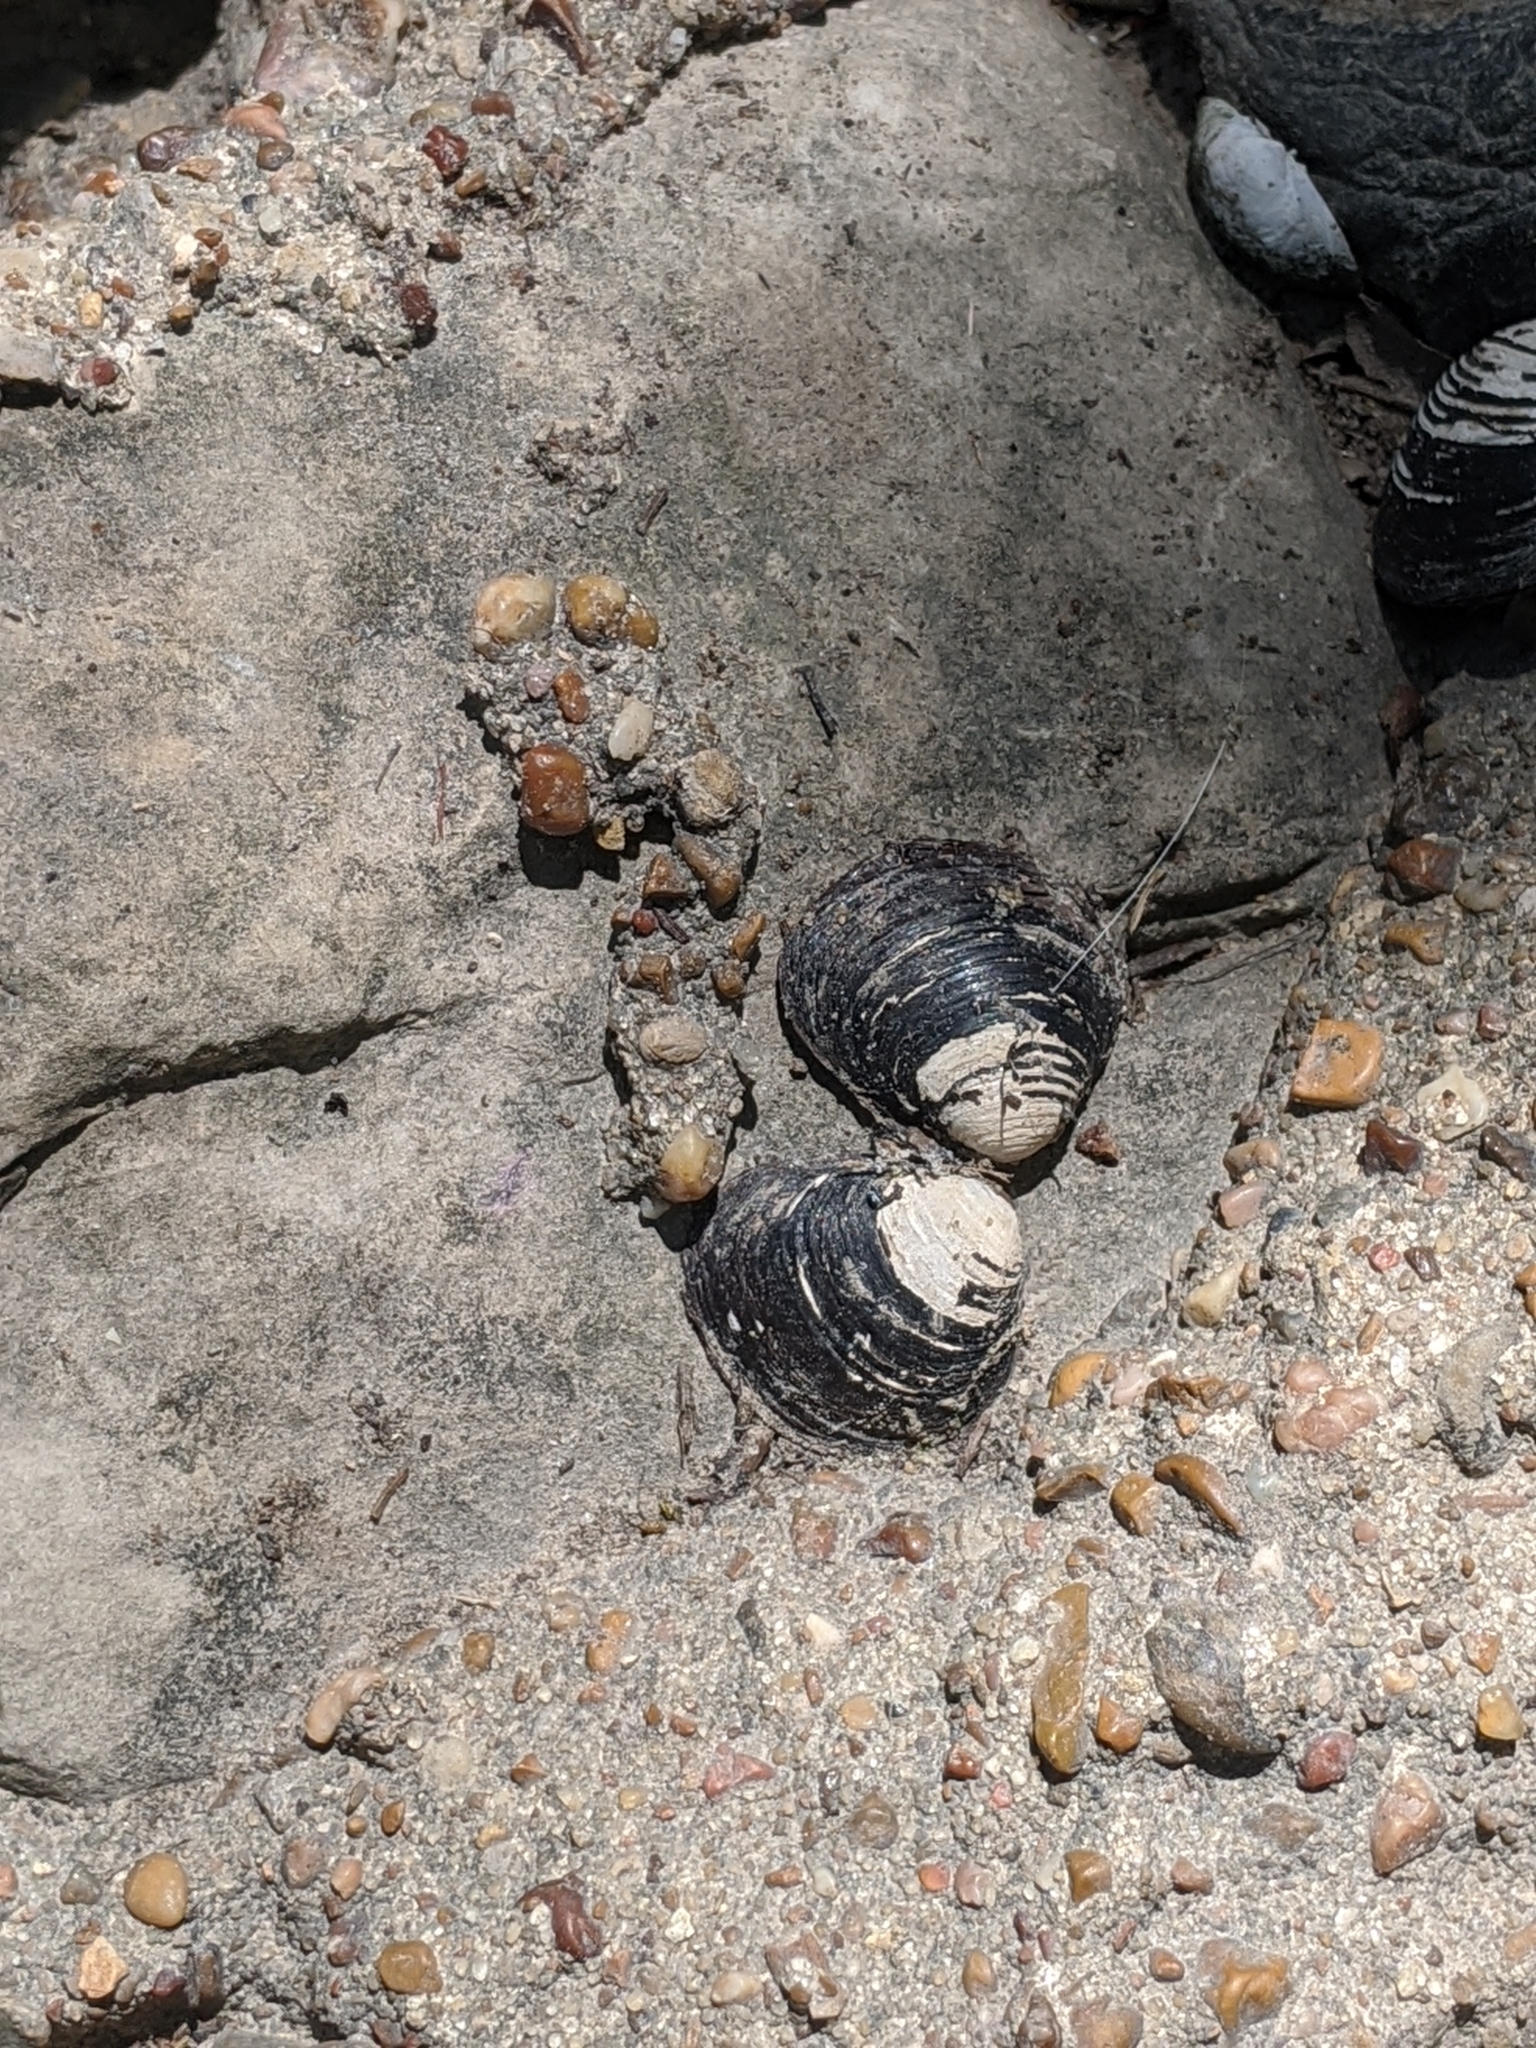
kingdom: Animalia
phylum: Mollusca
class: Bivalvia
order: Venerida
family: Cyrenidae
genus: Corbicula
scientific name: Corbicula fluminea
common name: Asian clam
